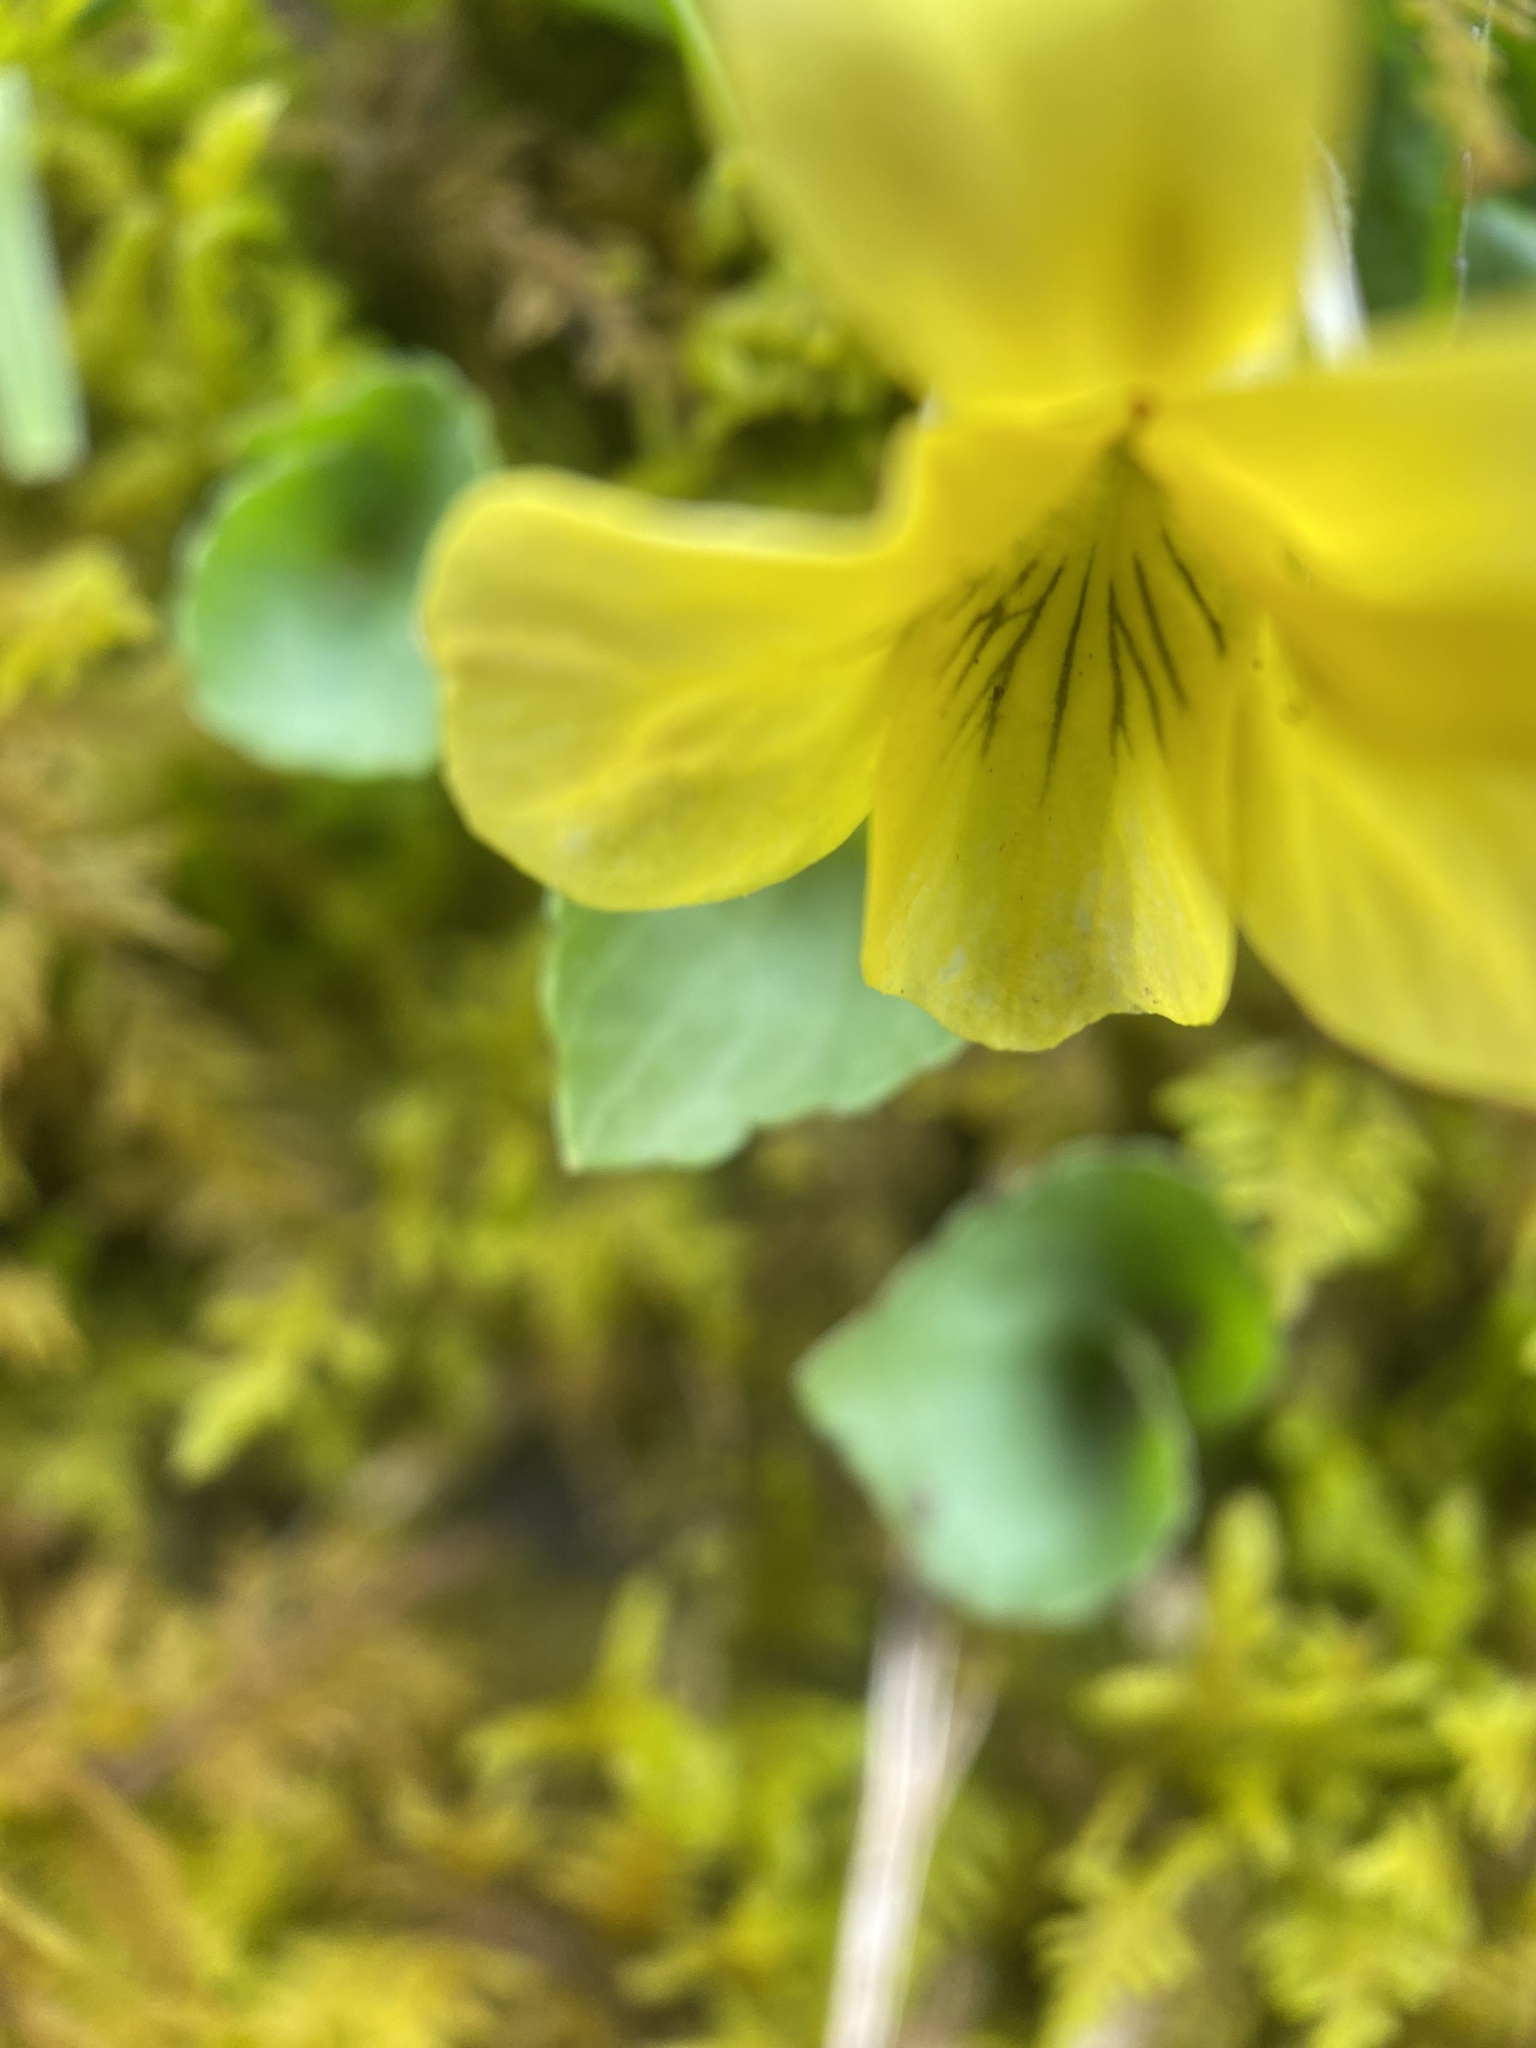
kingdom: Plantae
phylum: Tracheophyta
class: Magnoliopsida
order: Malpighiales
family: Violaceae
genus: Viola
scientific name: Viola eriocarpa
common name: Smooth yellow violet
